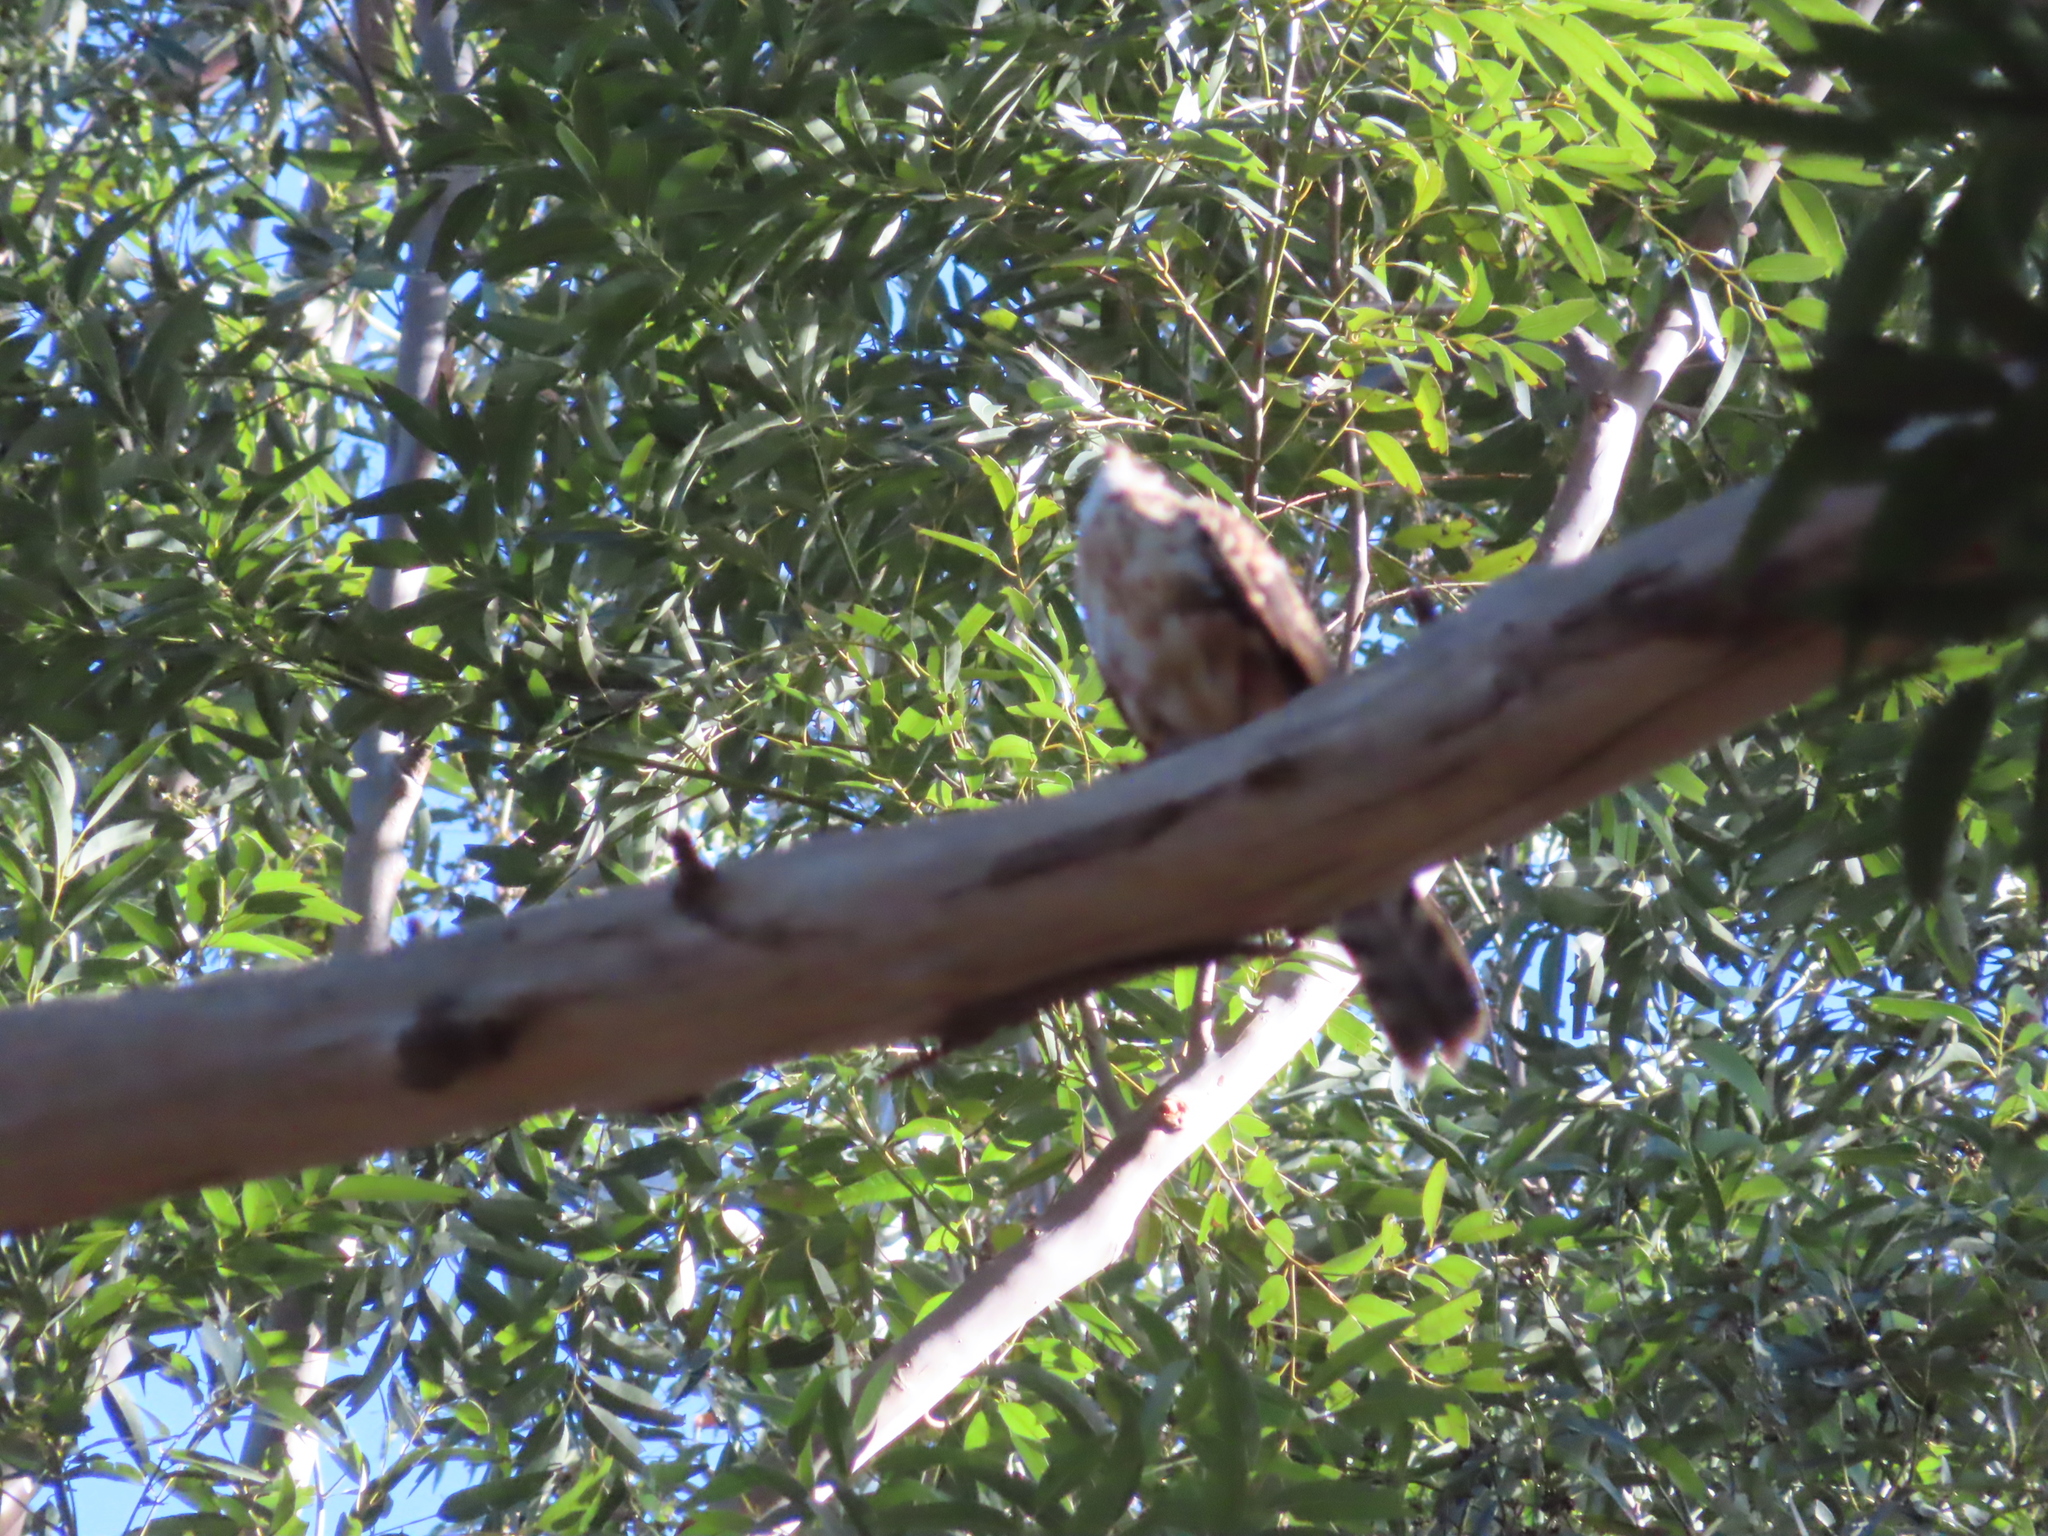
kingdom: Animalia
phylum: Chordata
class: Aves
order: Accipitriformes
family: Accipitridae
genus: Accipiter
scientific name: Accipiter melanoleucus
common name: Black sparrowhawk
